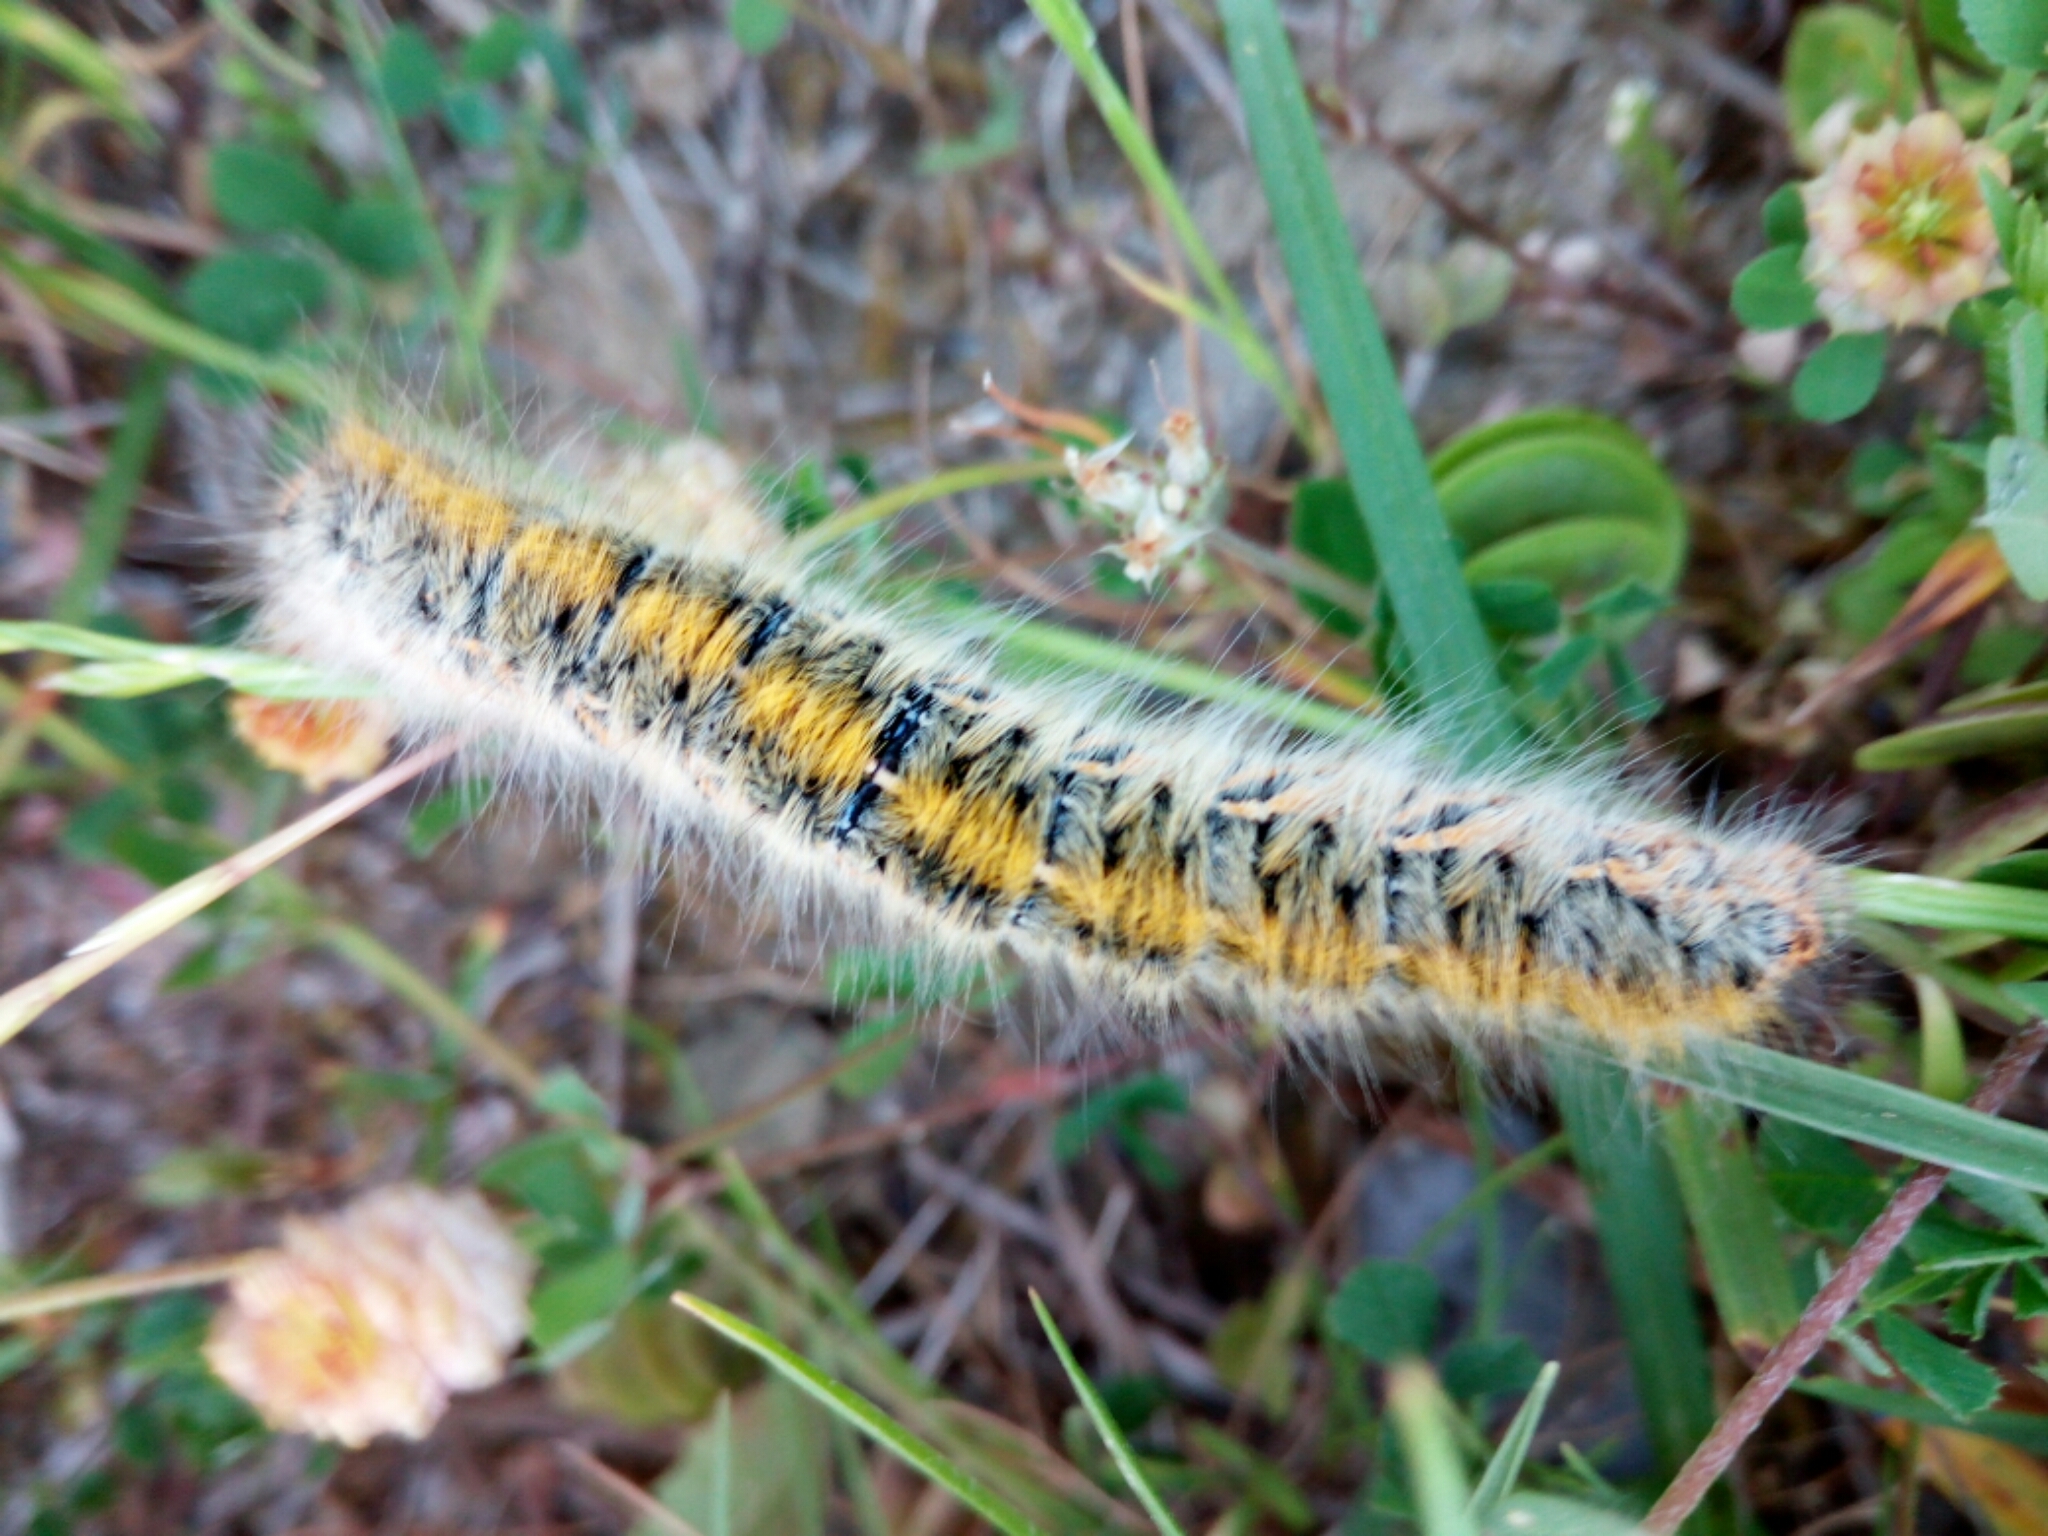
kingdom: Animalia
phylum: Arthropoda
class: Insecta
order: Lepidoptera
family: Lasiocampidae
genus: Lasiocampa
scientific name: Lasiocampa trifolii
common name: Grass eggar
